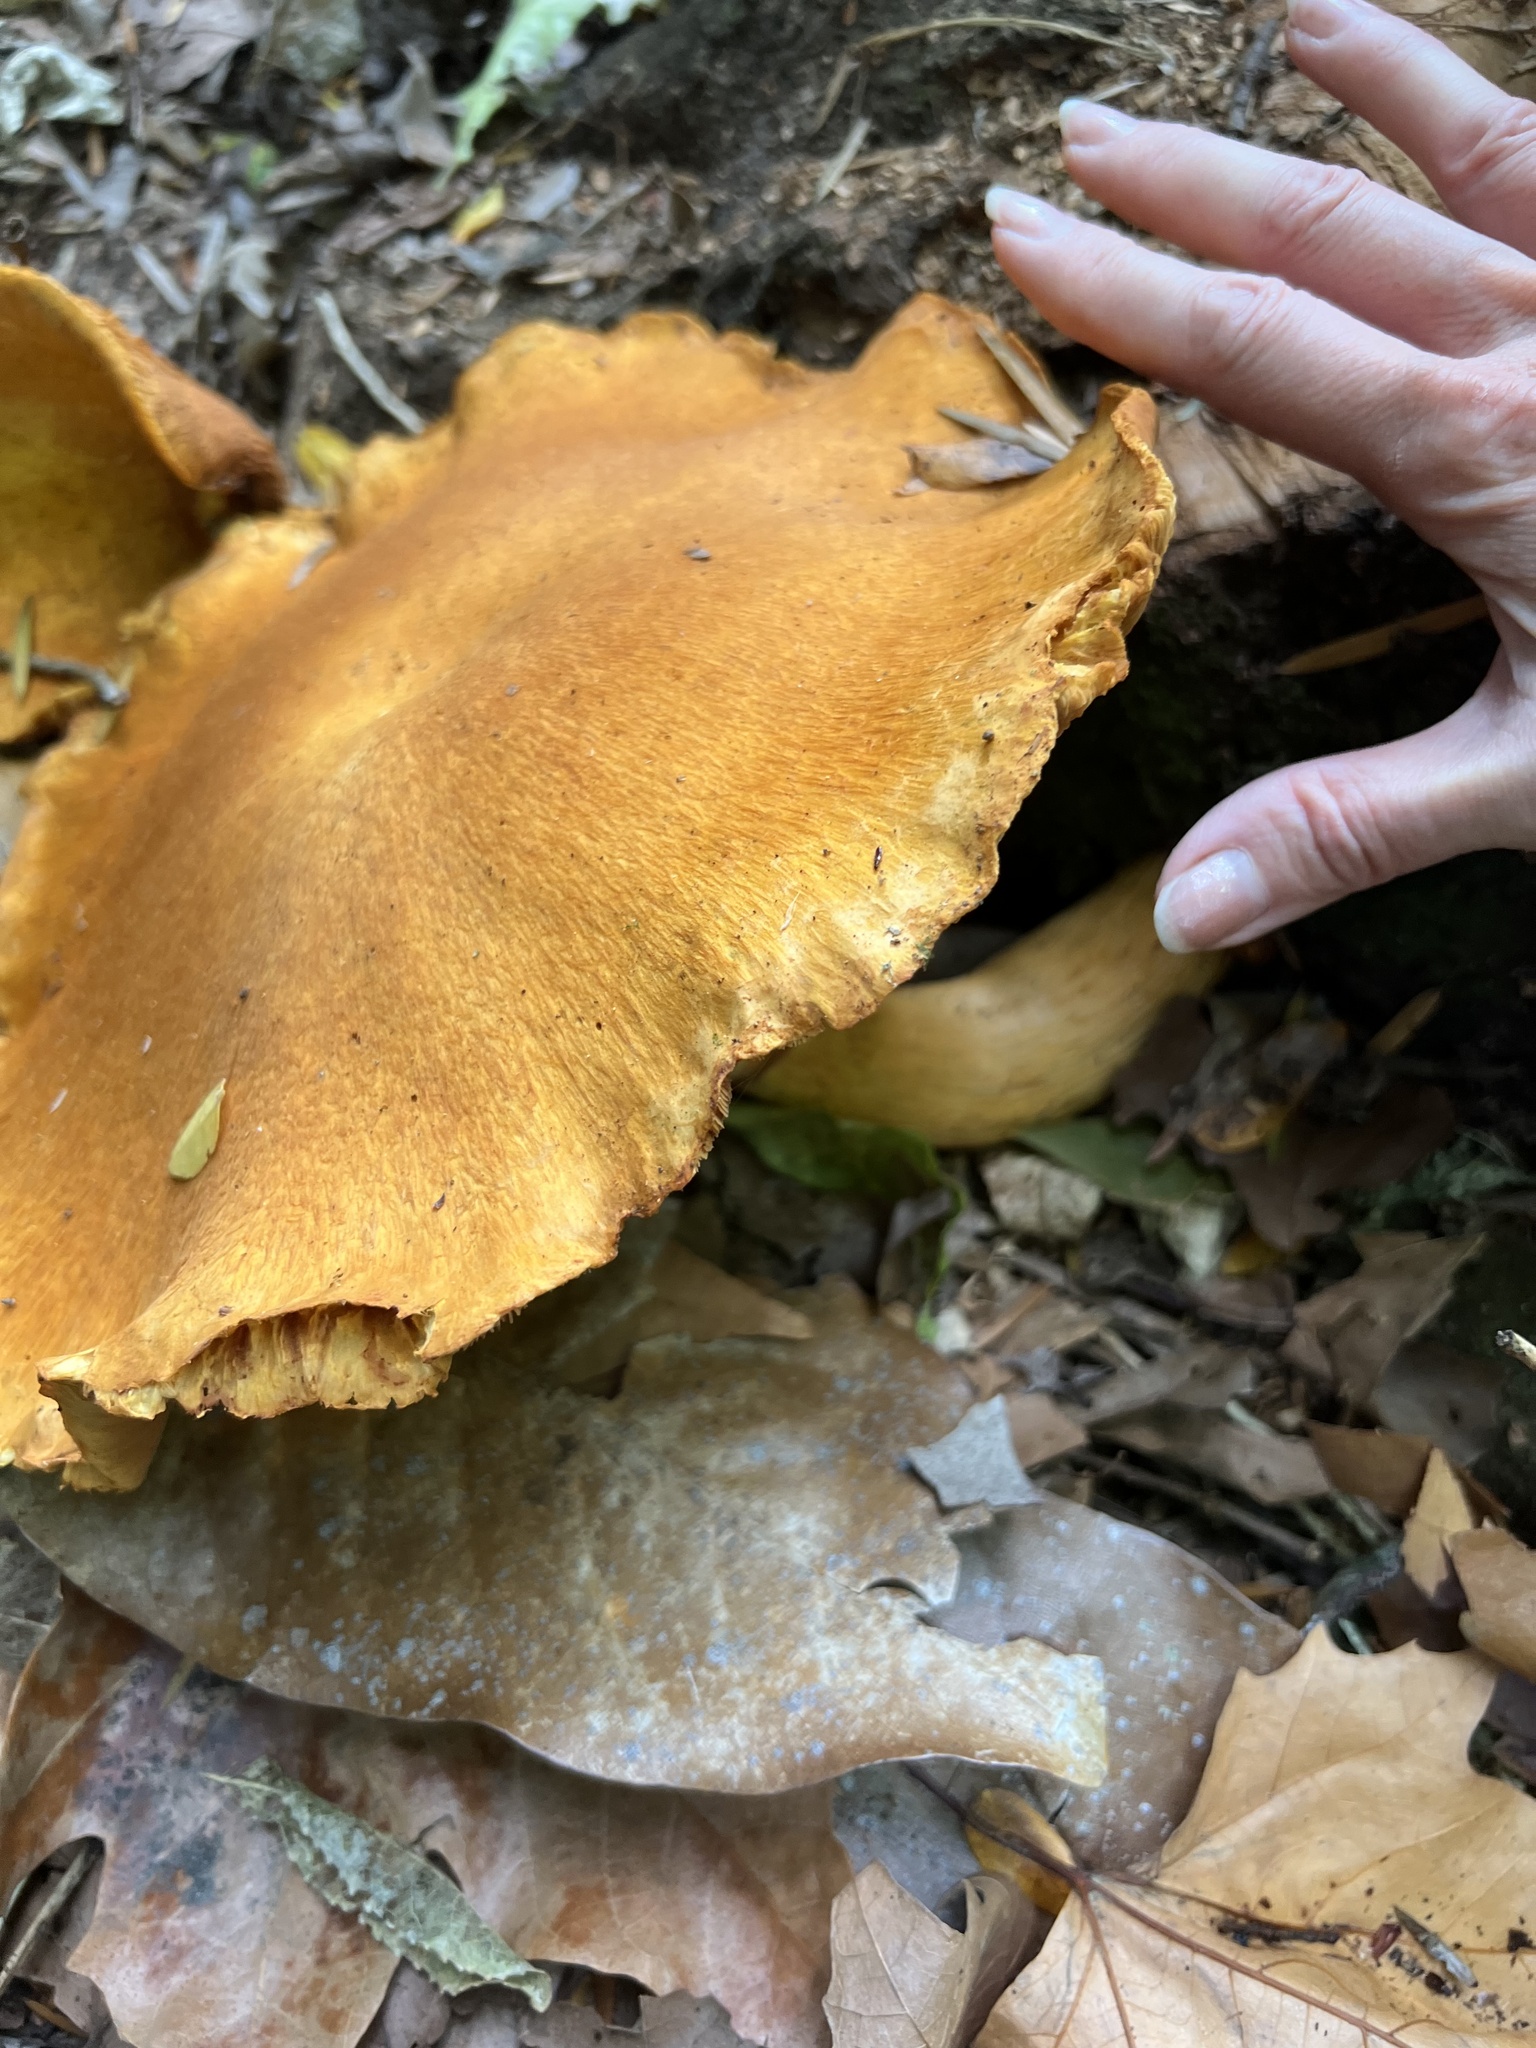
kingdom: Fungi
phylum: Basidiomycota
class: Agaricomycetes
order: Agaricales
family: Hymenogastraceae
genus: Gymnopilus
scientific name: Gymnopilus junonius
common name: Spectacular rustgill
